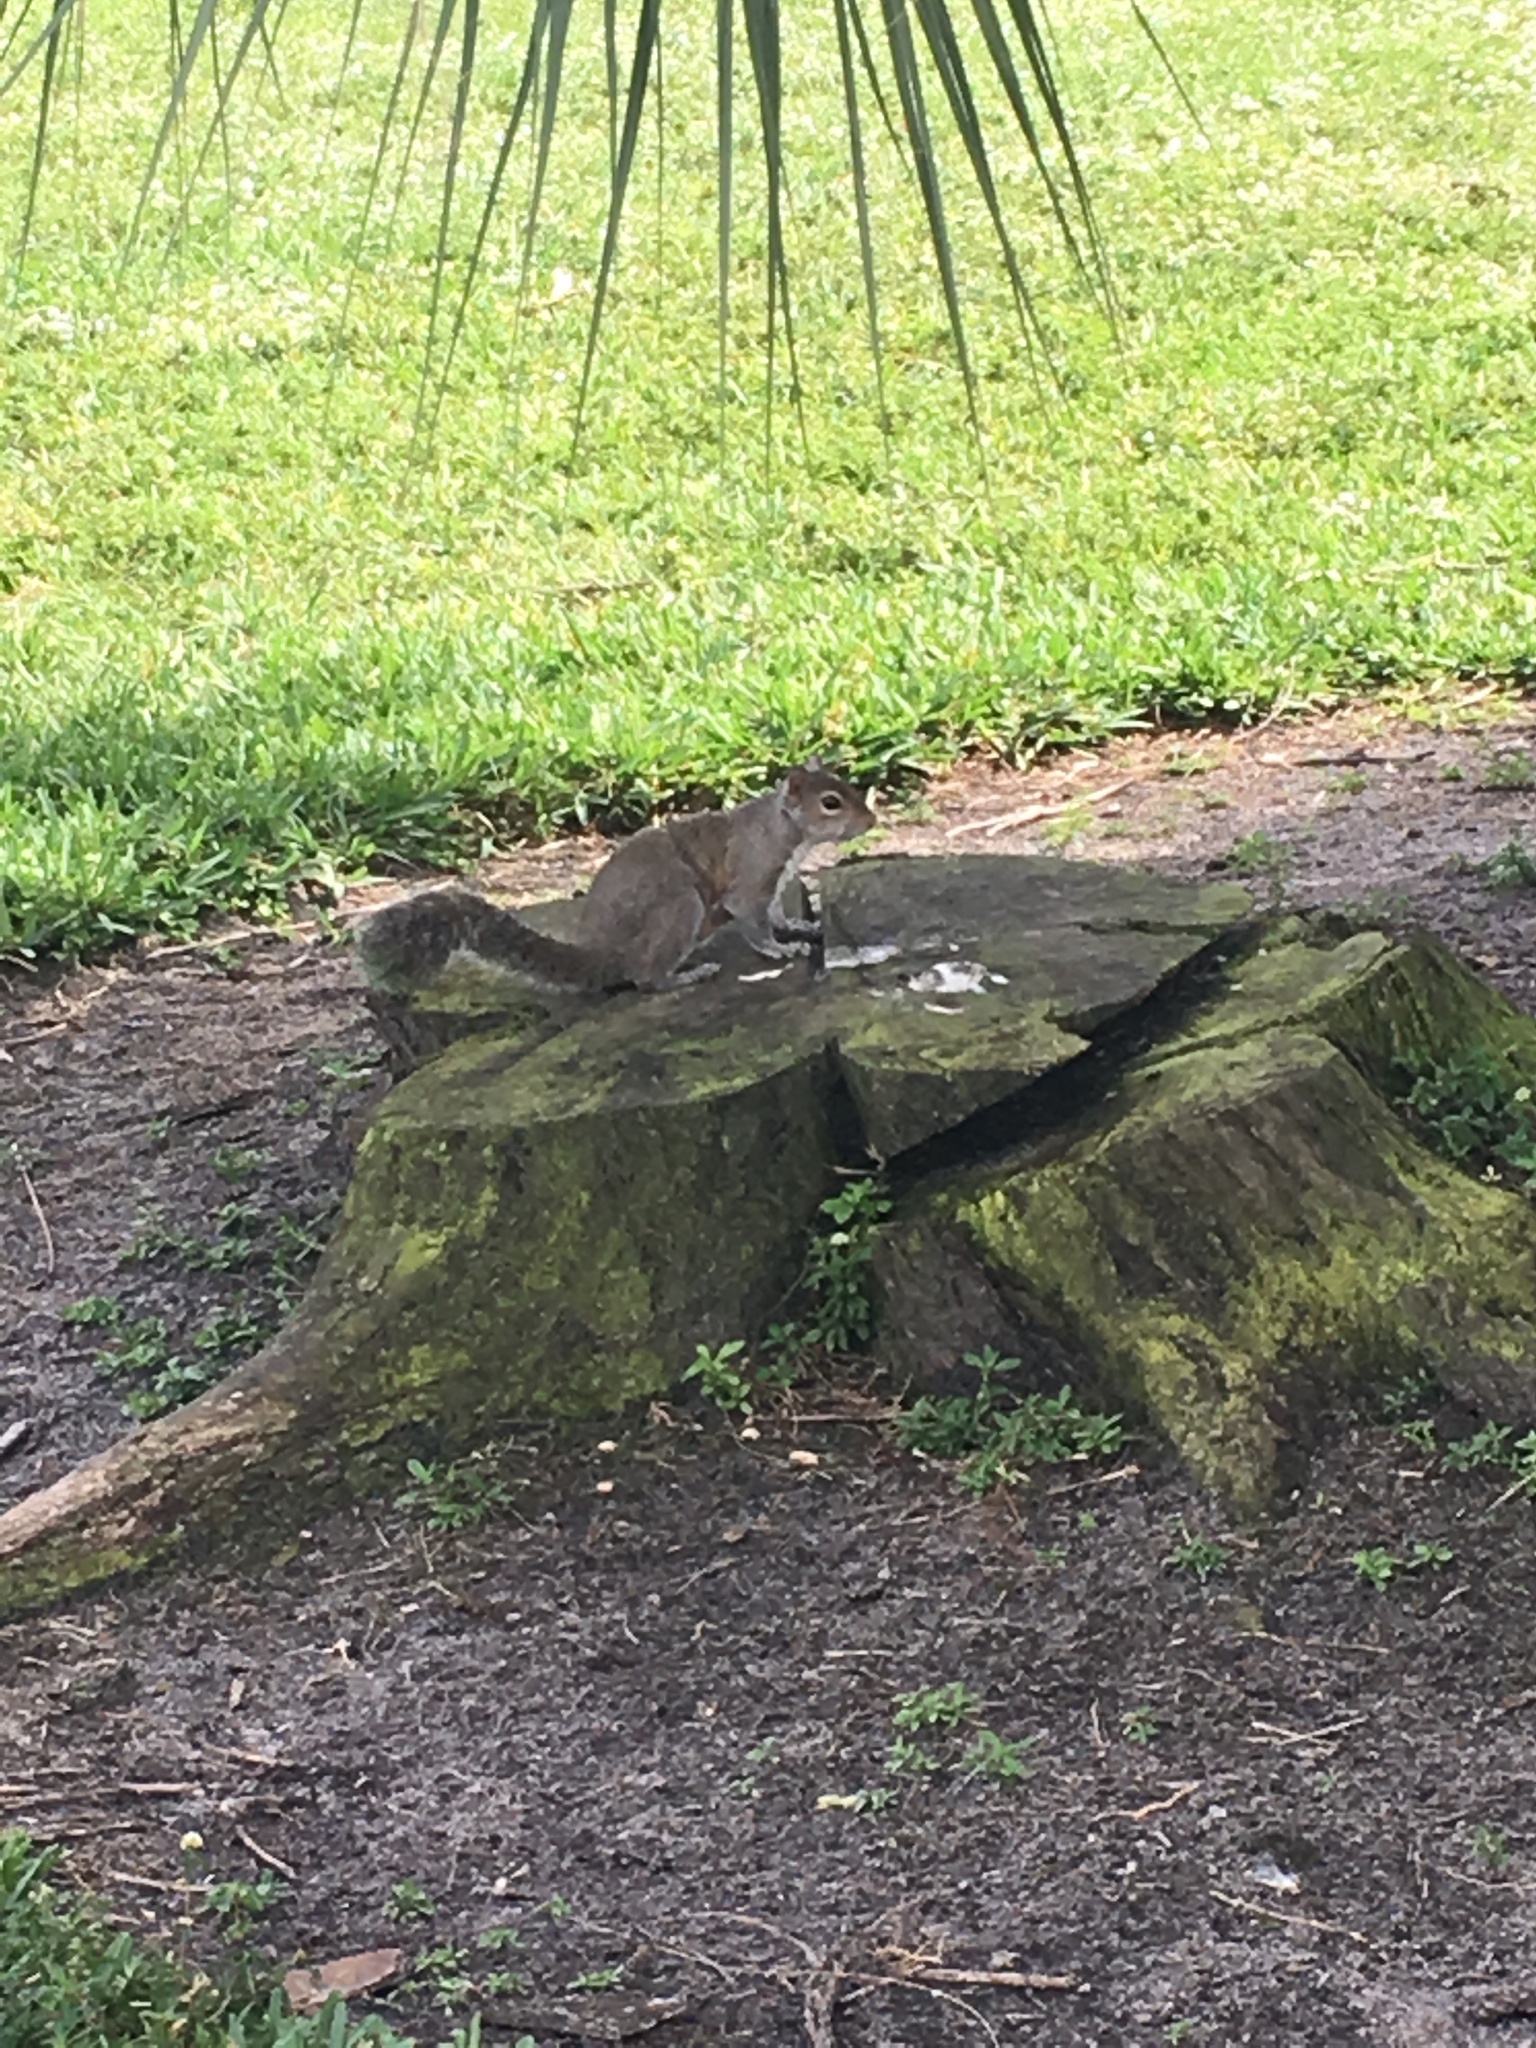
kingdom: Animalia
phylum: Chordata
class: Mammalia
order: Rodentia
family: Sciuridae
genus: Sciurus
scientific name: Sciurus carolinensis
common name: Eastern gray squirrel
